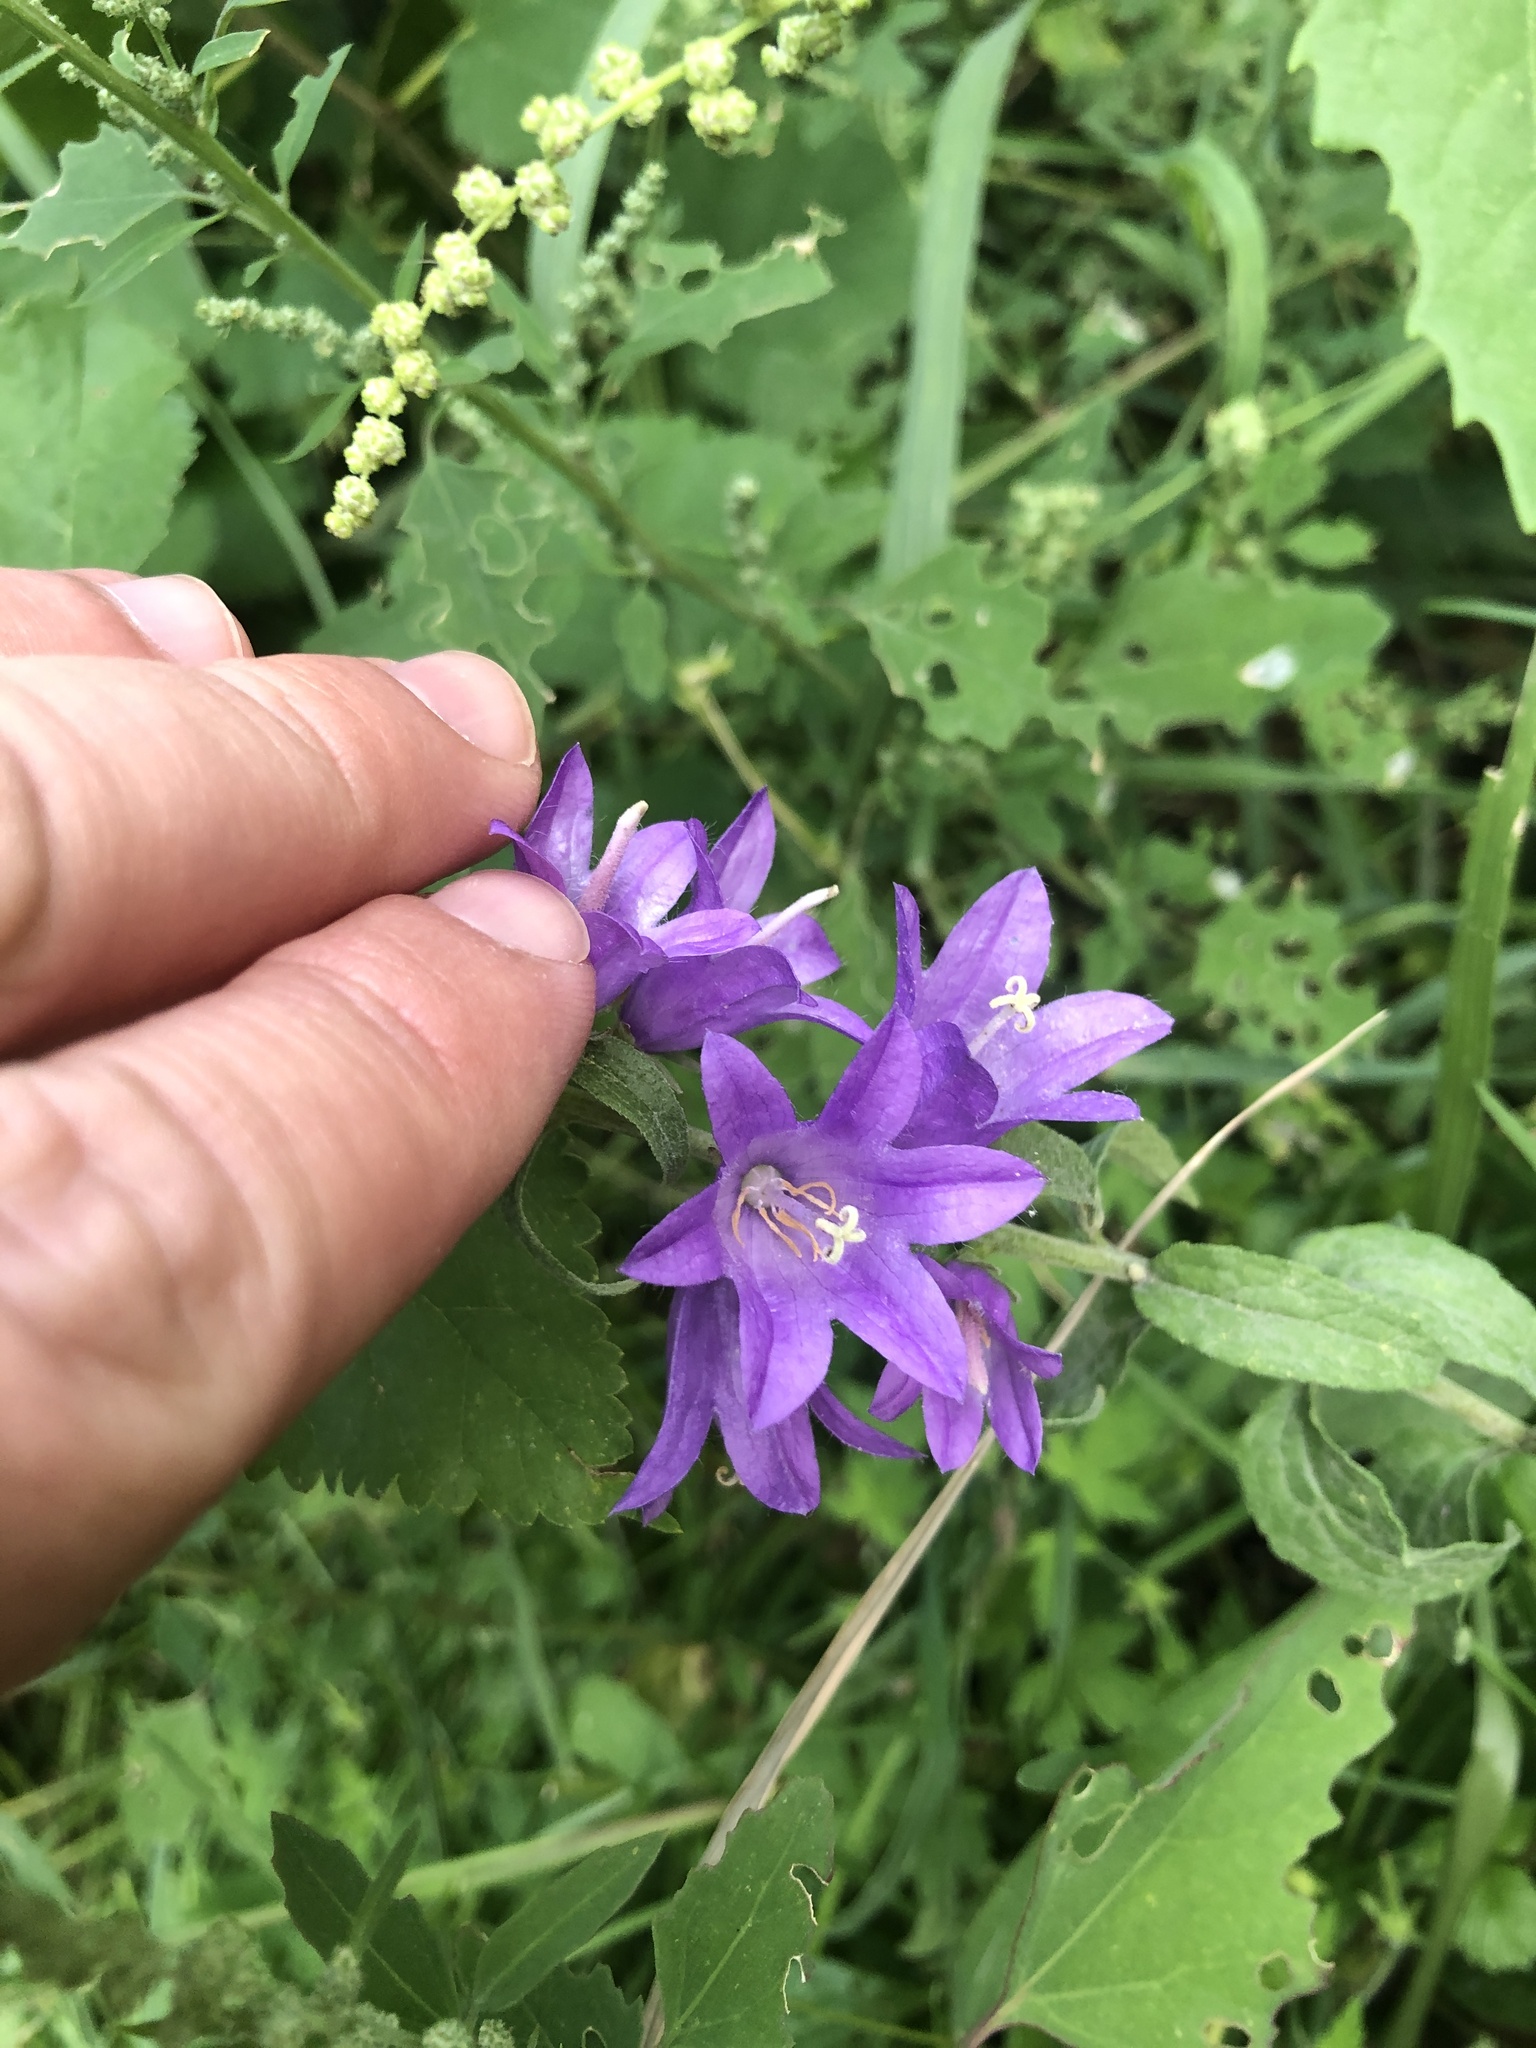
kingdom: Plantae
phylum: Tracheophyta
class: Magnoliopsida
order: Asterales
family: Campanulaceae
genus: Campanula
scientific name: Campanula rapunculoides
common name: Creeping bellflower
